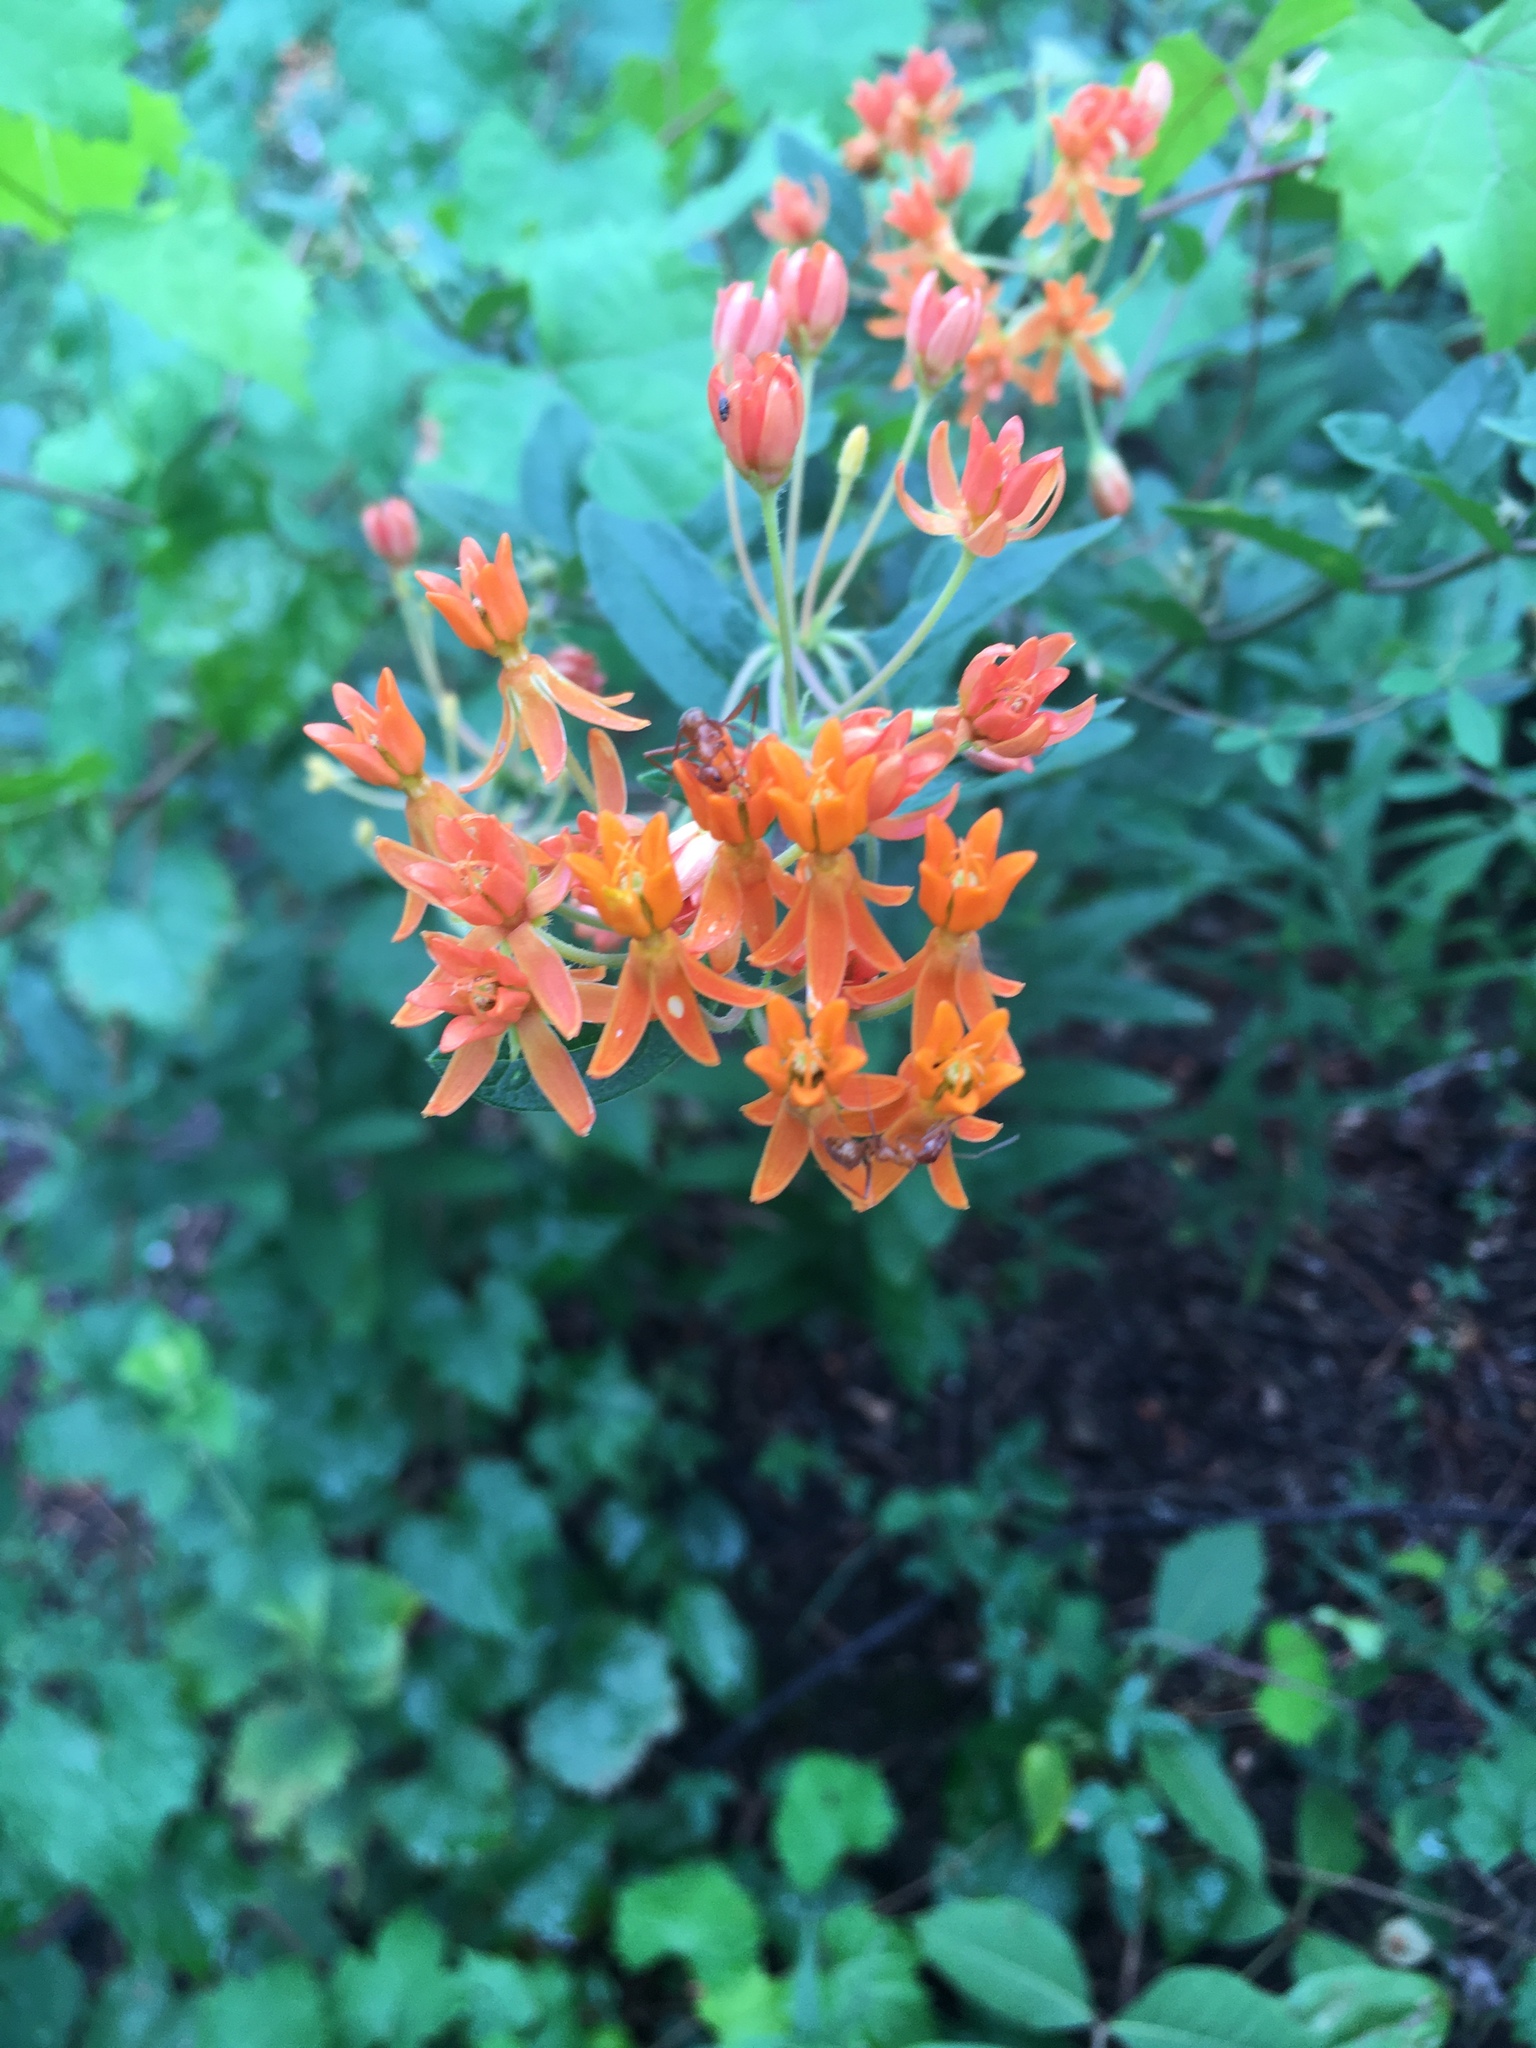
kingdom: Plantae
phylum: Tracheophyta
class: Magnoliopsida
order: Gentianales
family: Apocynaceae
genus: Asclepias
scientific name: Asclepias tuberosa
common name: Butterfly milkweed
